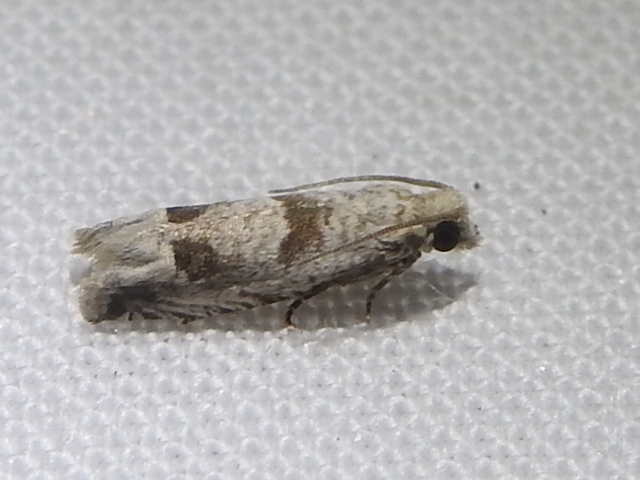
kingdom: Animalia
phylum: Arthropoda
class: Insecta
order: Lepidoptera
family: Tortricidae
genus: Pelochrista
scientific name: Pelochrista canana
